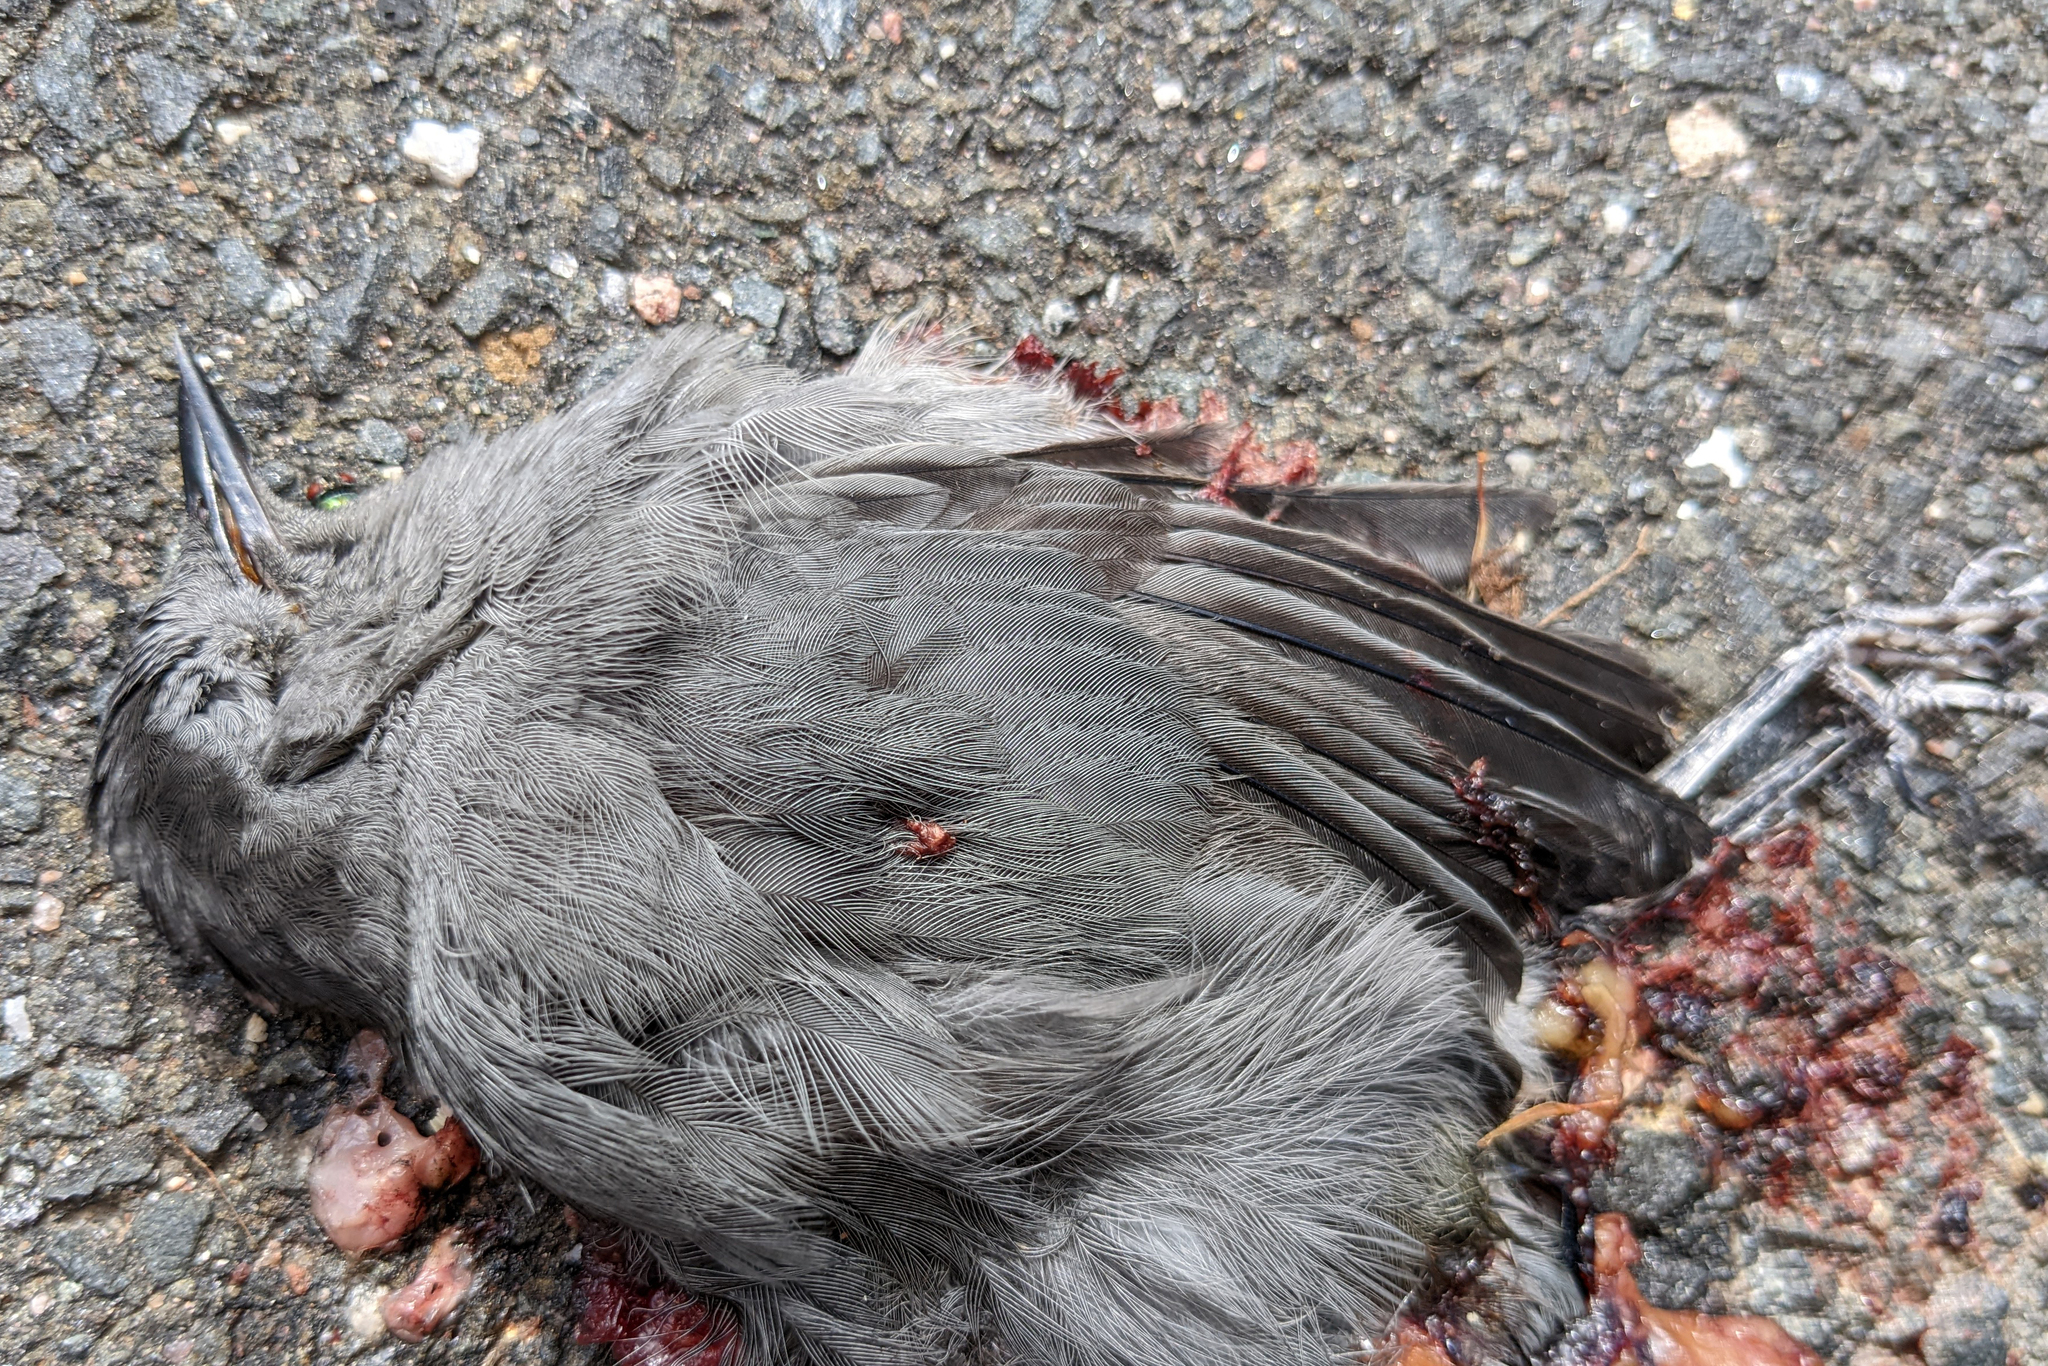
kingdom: Animalia
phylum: Chordata
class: Aves
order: Passeriformes
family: Mimidae
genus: Dumetella
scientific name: Dumetella carolinensis
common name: Gray catbird
